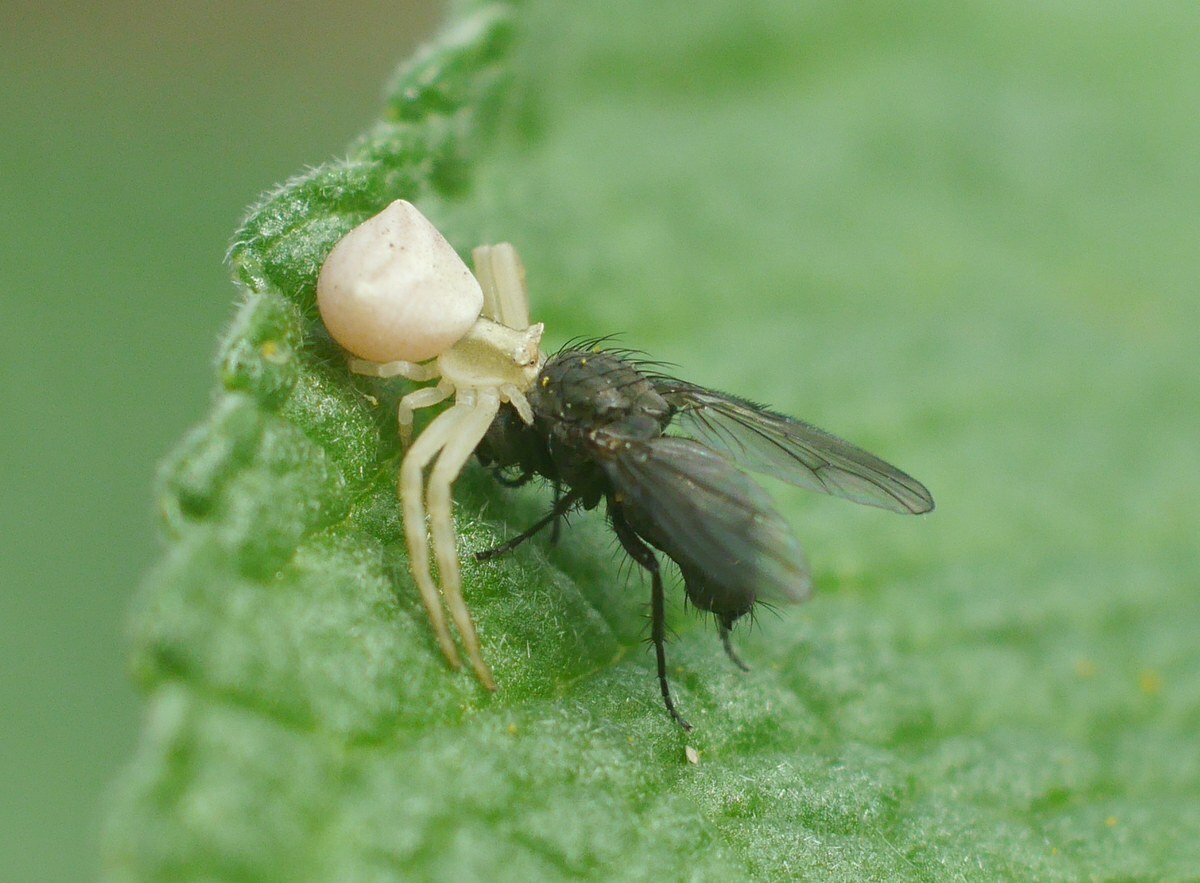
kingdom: Animalia
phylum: Arthropoda
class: Arachnida
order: Araneae
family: Thomisidae
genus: Thomisus
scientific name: Thomisus onustus
